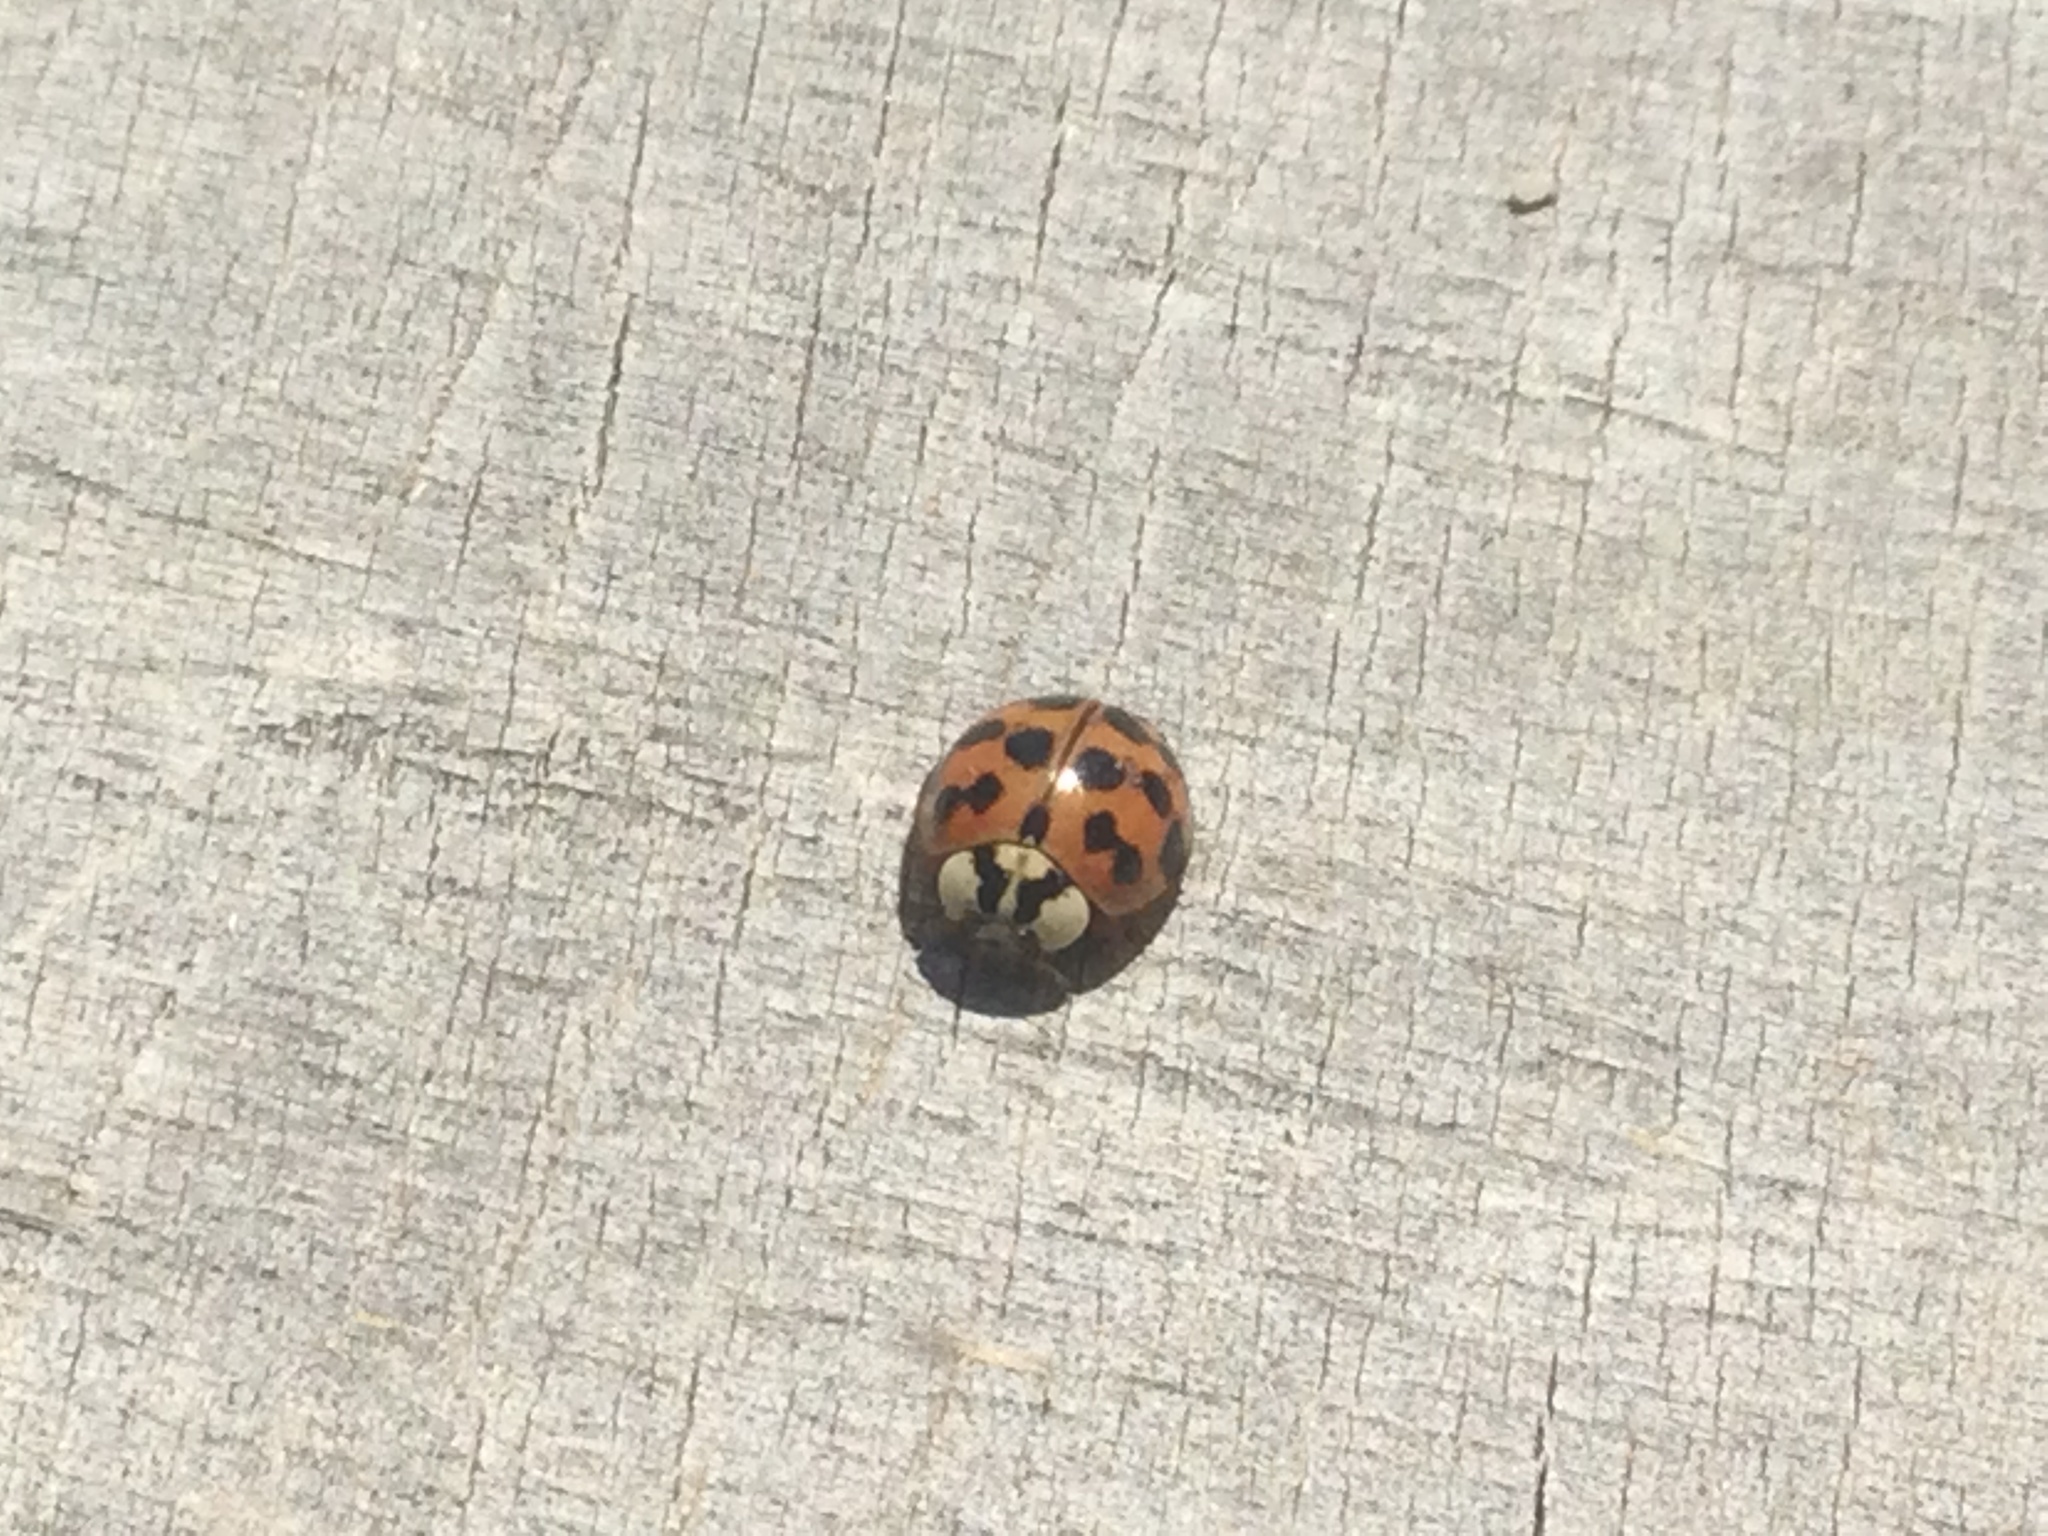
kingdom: Animalia
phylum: Arthropoda
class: Insecta
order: Coleoptera
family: Coccinellidae
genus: Harmonia
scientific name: Harmonia axyridis
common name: Harlequin ladybird
